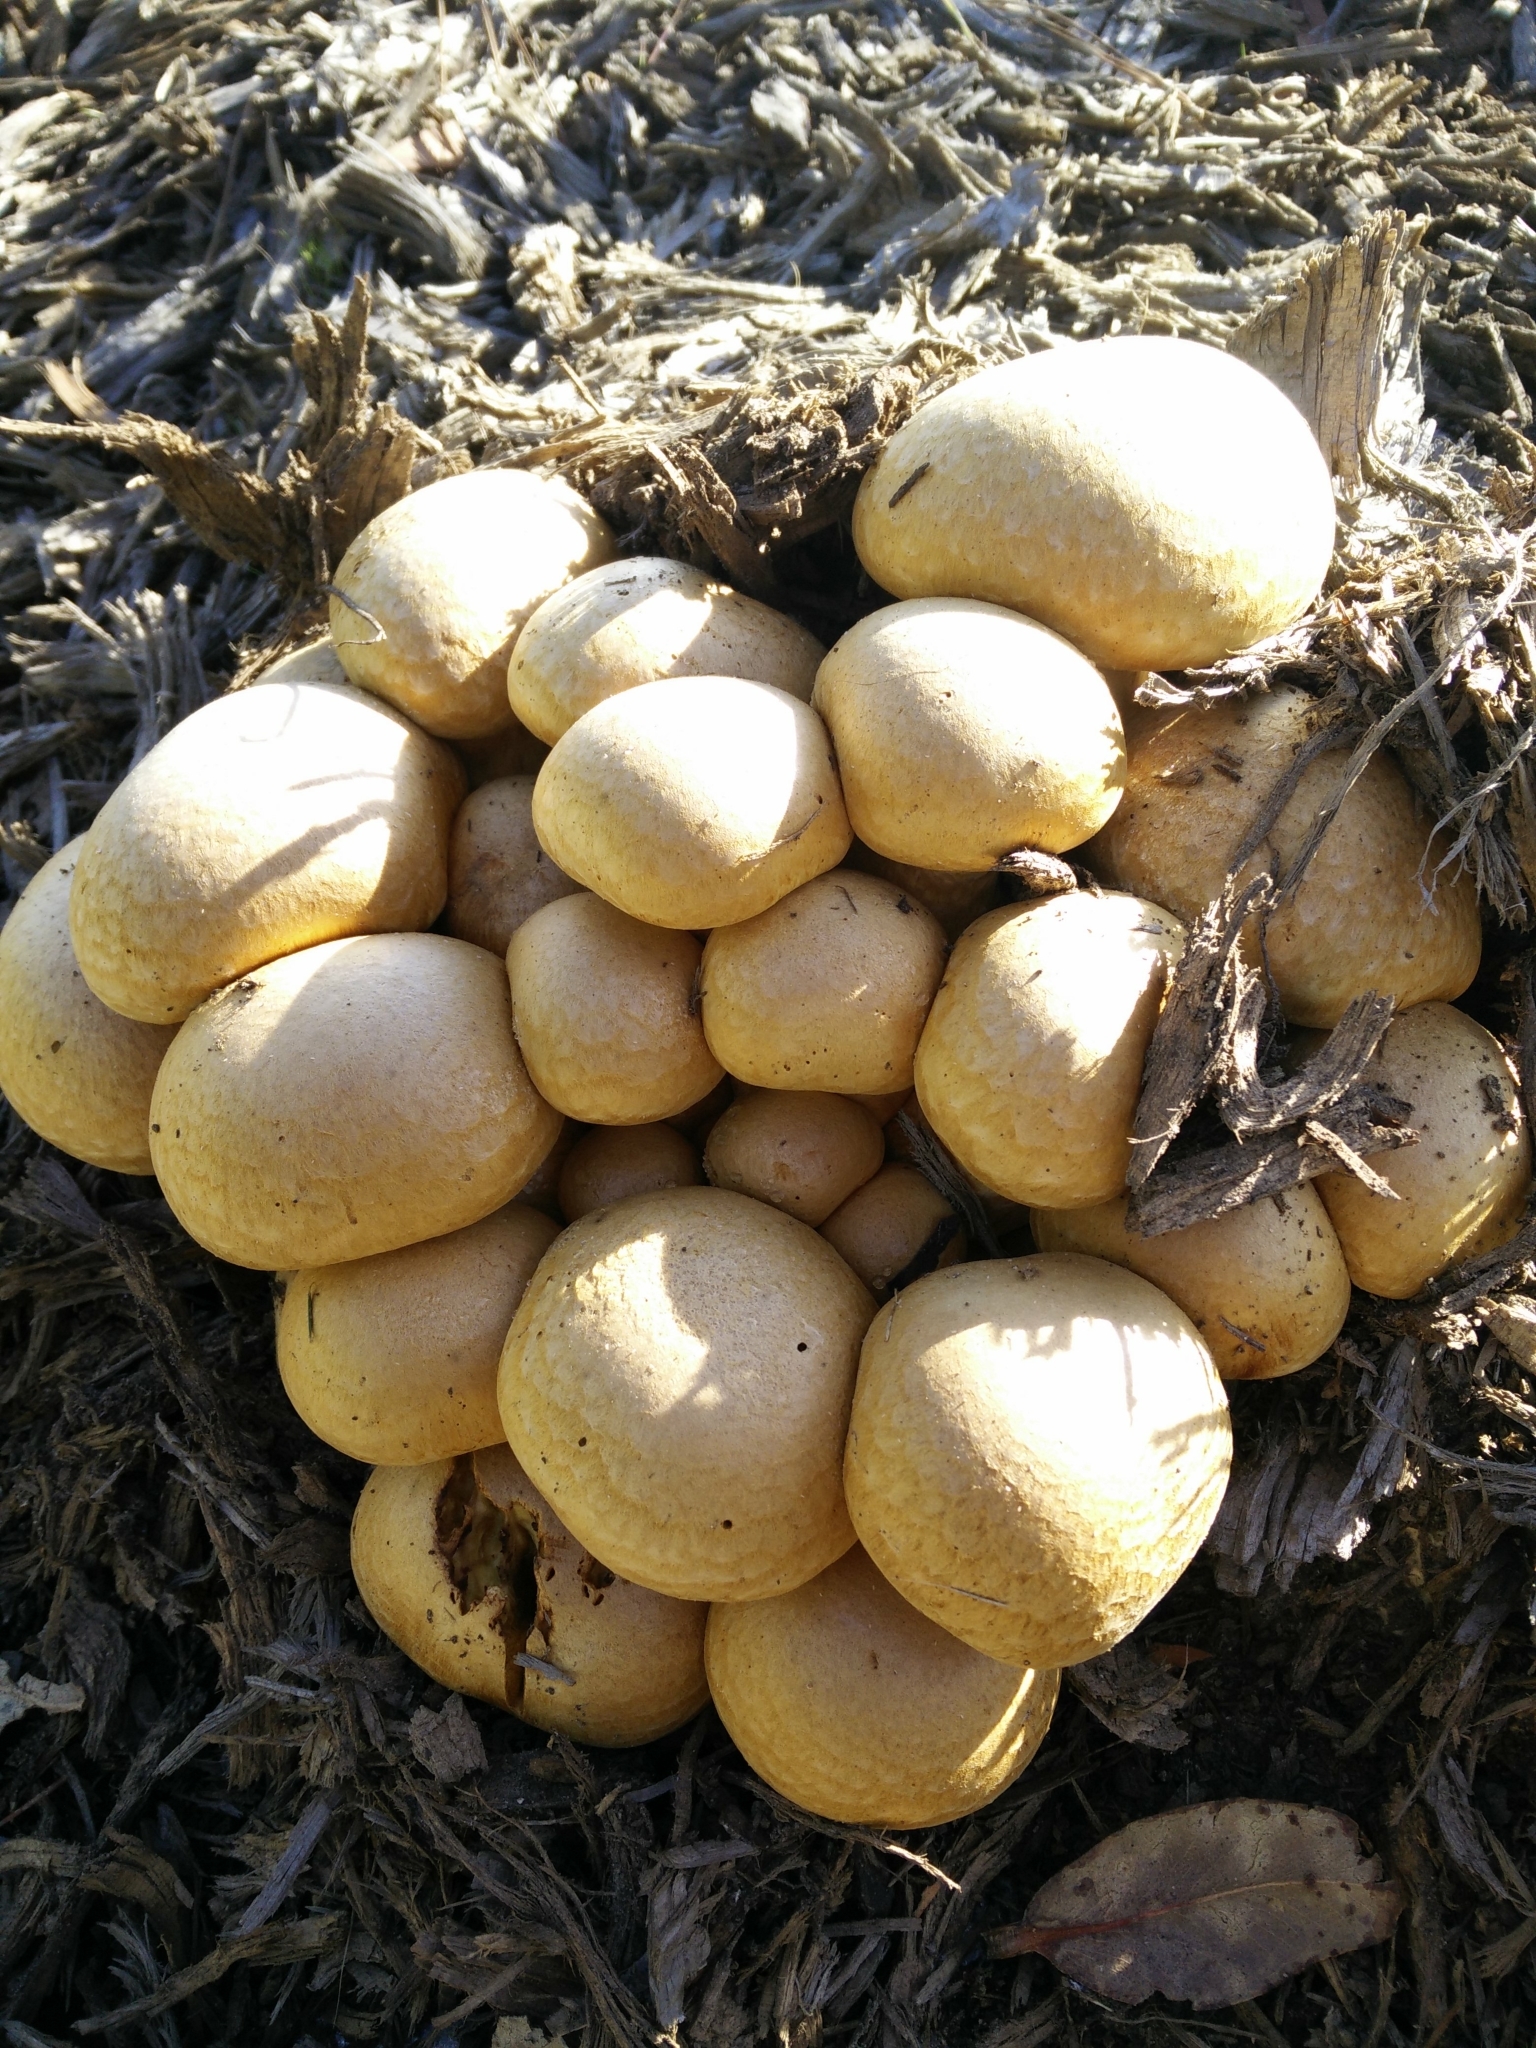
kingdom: Fungi
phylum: Basidiomycota
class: Agaricomycetes
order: Agaricales
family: Hymenogastraceae
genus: Gymnopilus
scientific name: Gymnopilus ventricosus
